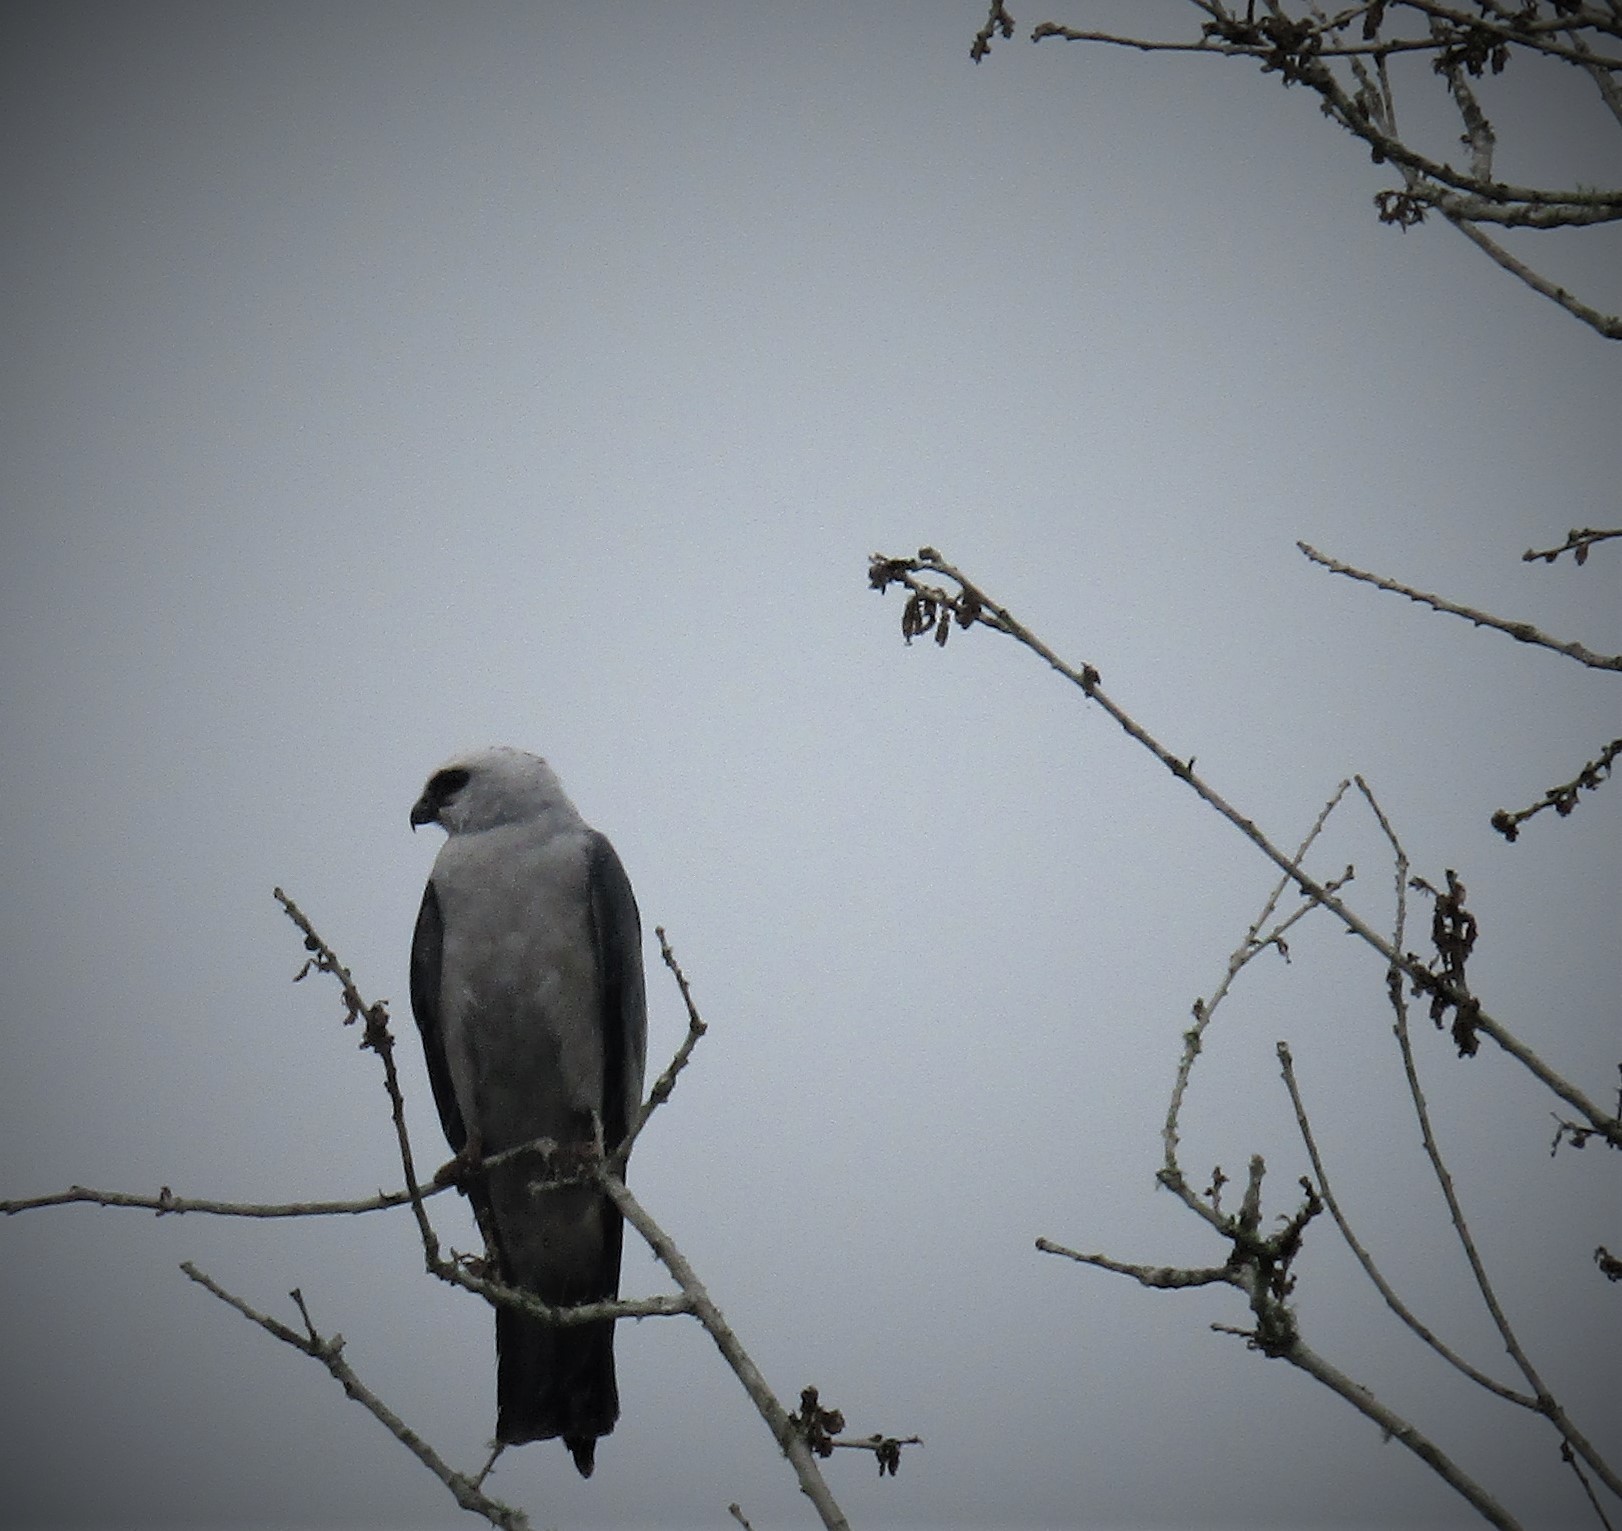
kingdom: Animalia
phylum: Chordata
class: Aves
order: Accipitriformes
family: Accipitridae
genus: Ictinia
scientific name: Ictinia mississippiensis
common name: Mississippi kite
